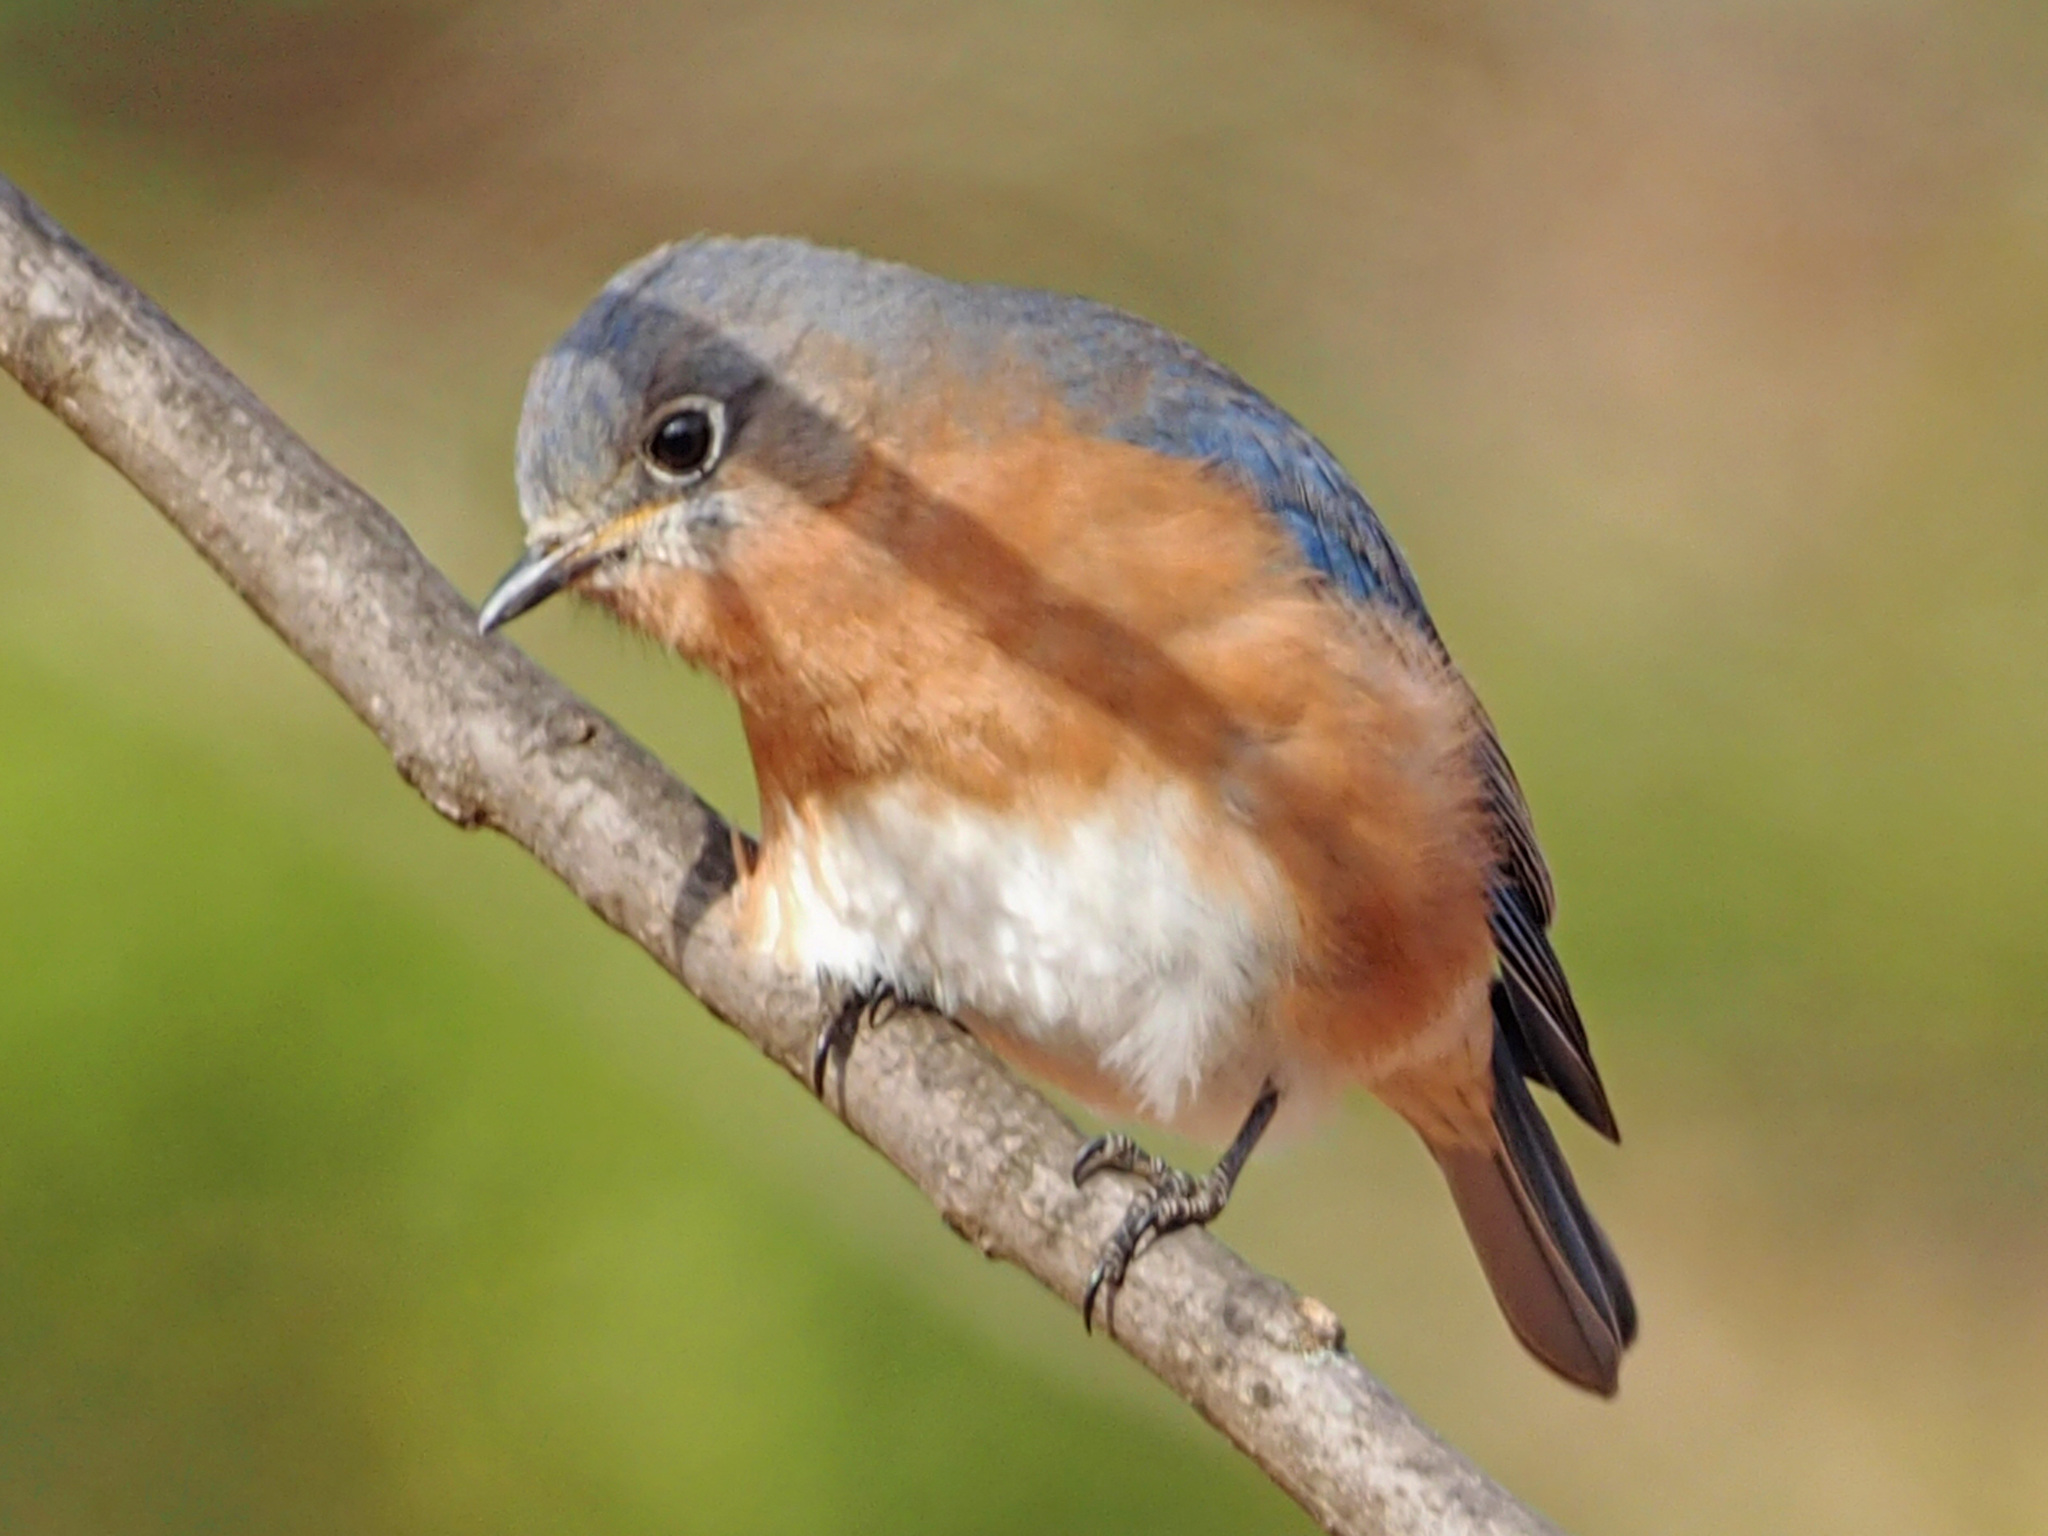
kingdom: Animalia
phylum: Chordata
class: Aves
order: Passeriformes
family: Turdidae
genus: Sialia
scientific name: Sialia sialis
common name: Eastern bluebird
